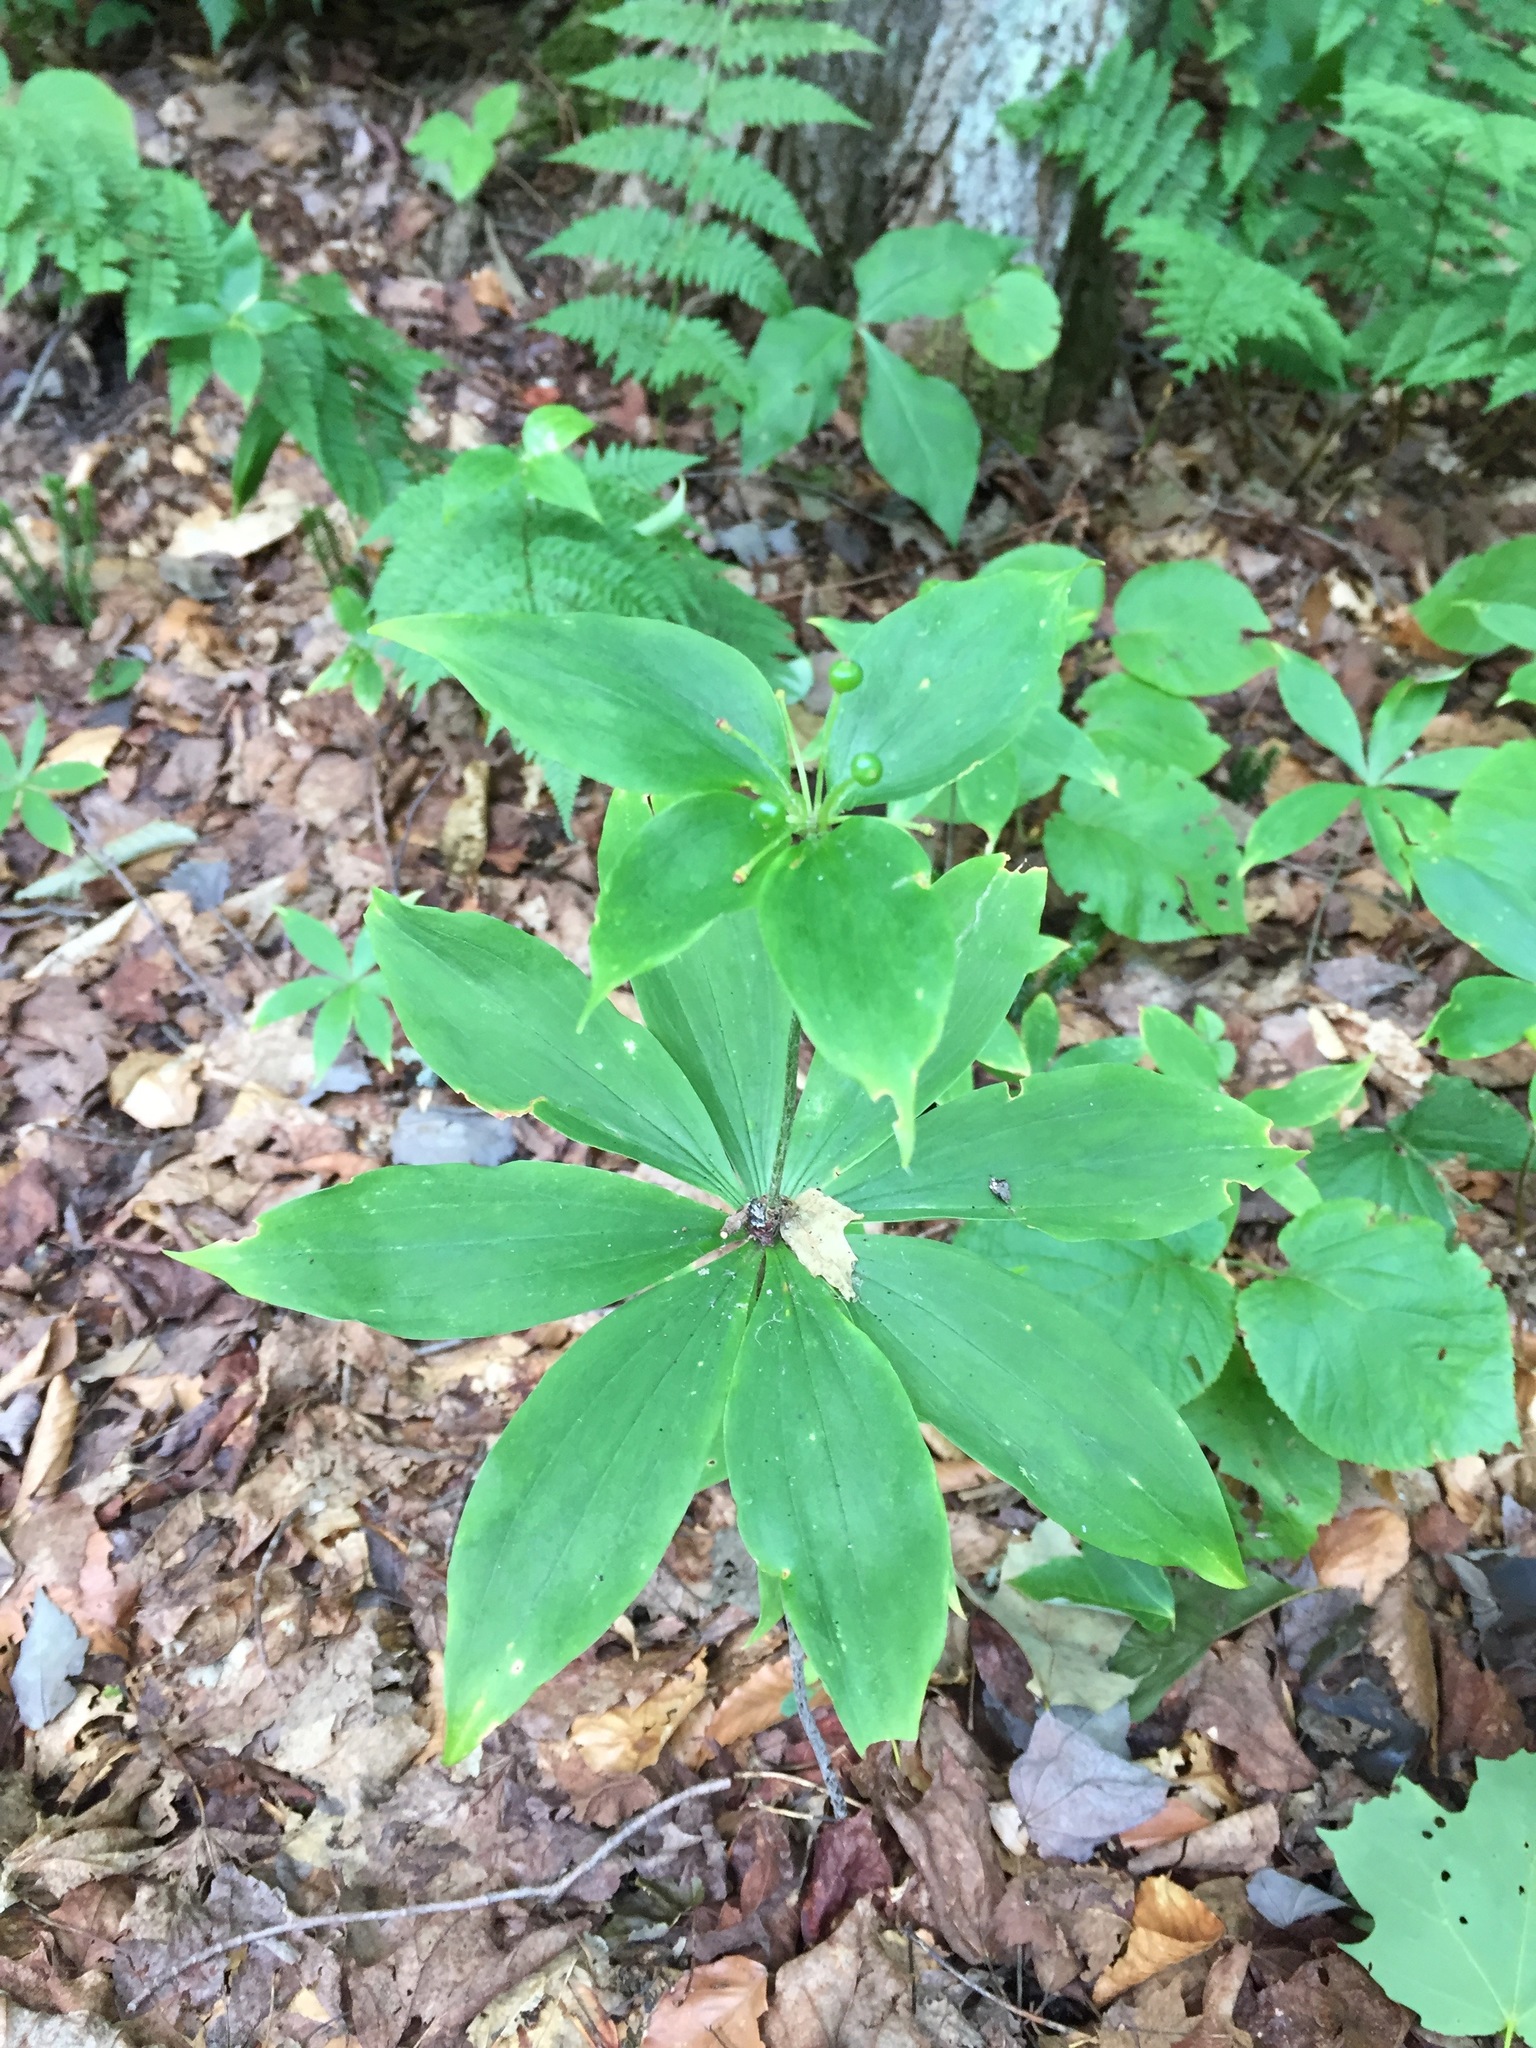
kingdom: Plantae
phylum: Tracheophyta
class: Liliopsida
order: Liliales
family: Liliaceae
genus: Medeola
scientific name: Medeola virginiana
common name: Indian cucumber-root
